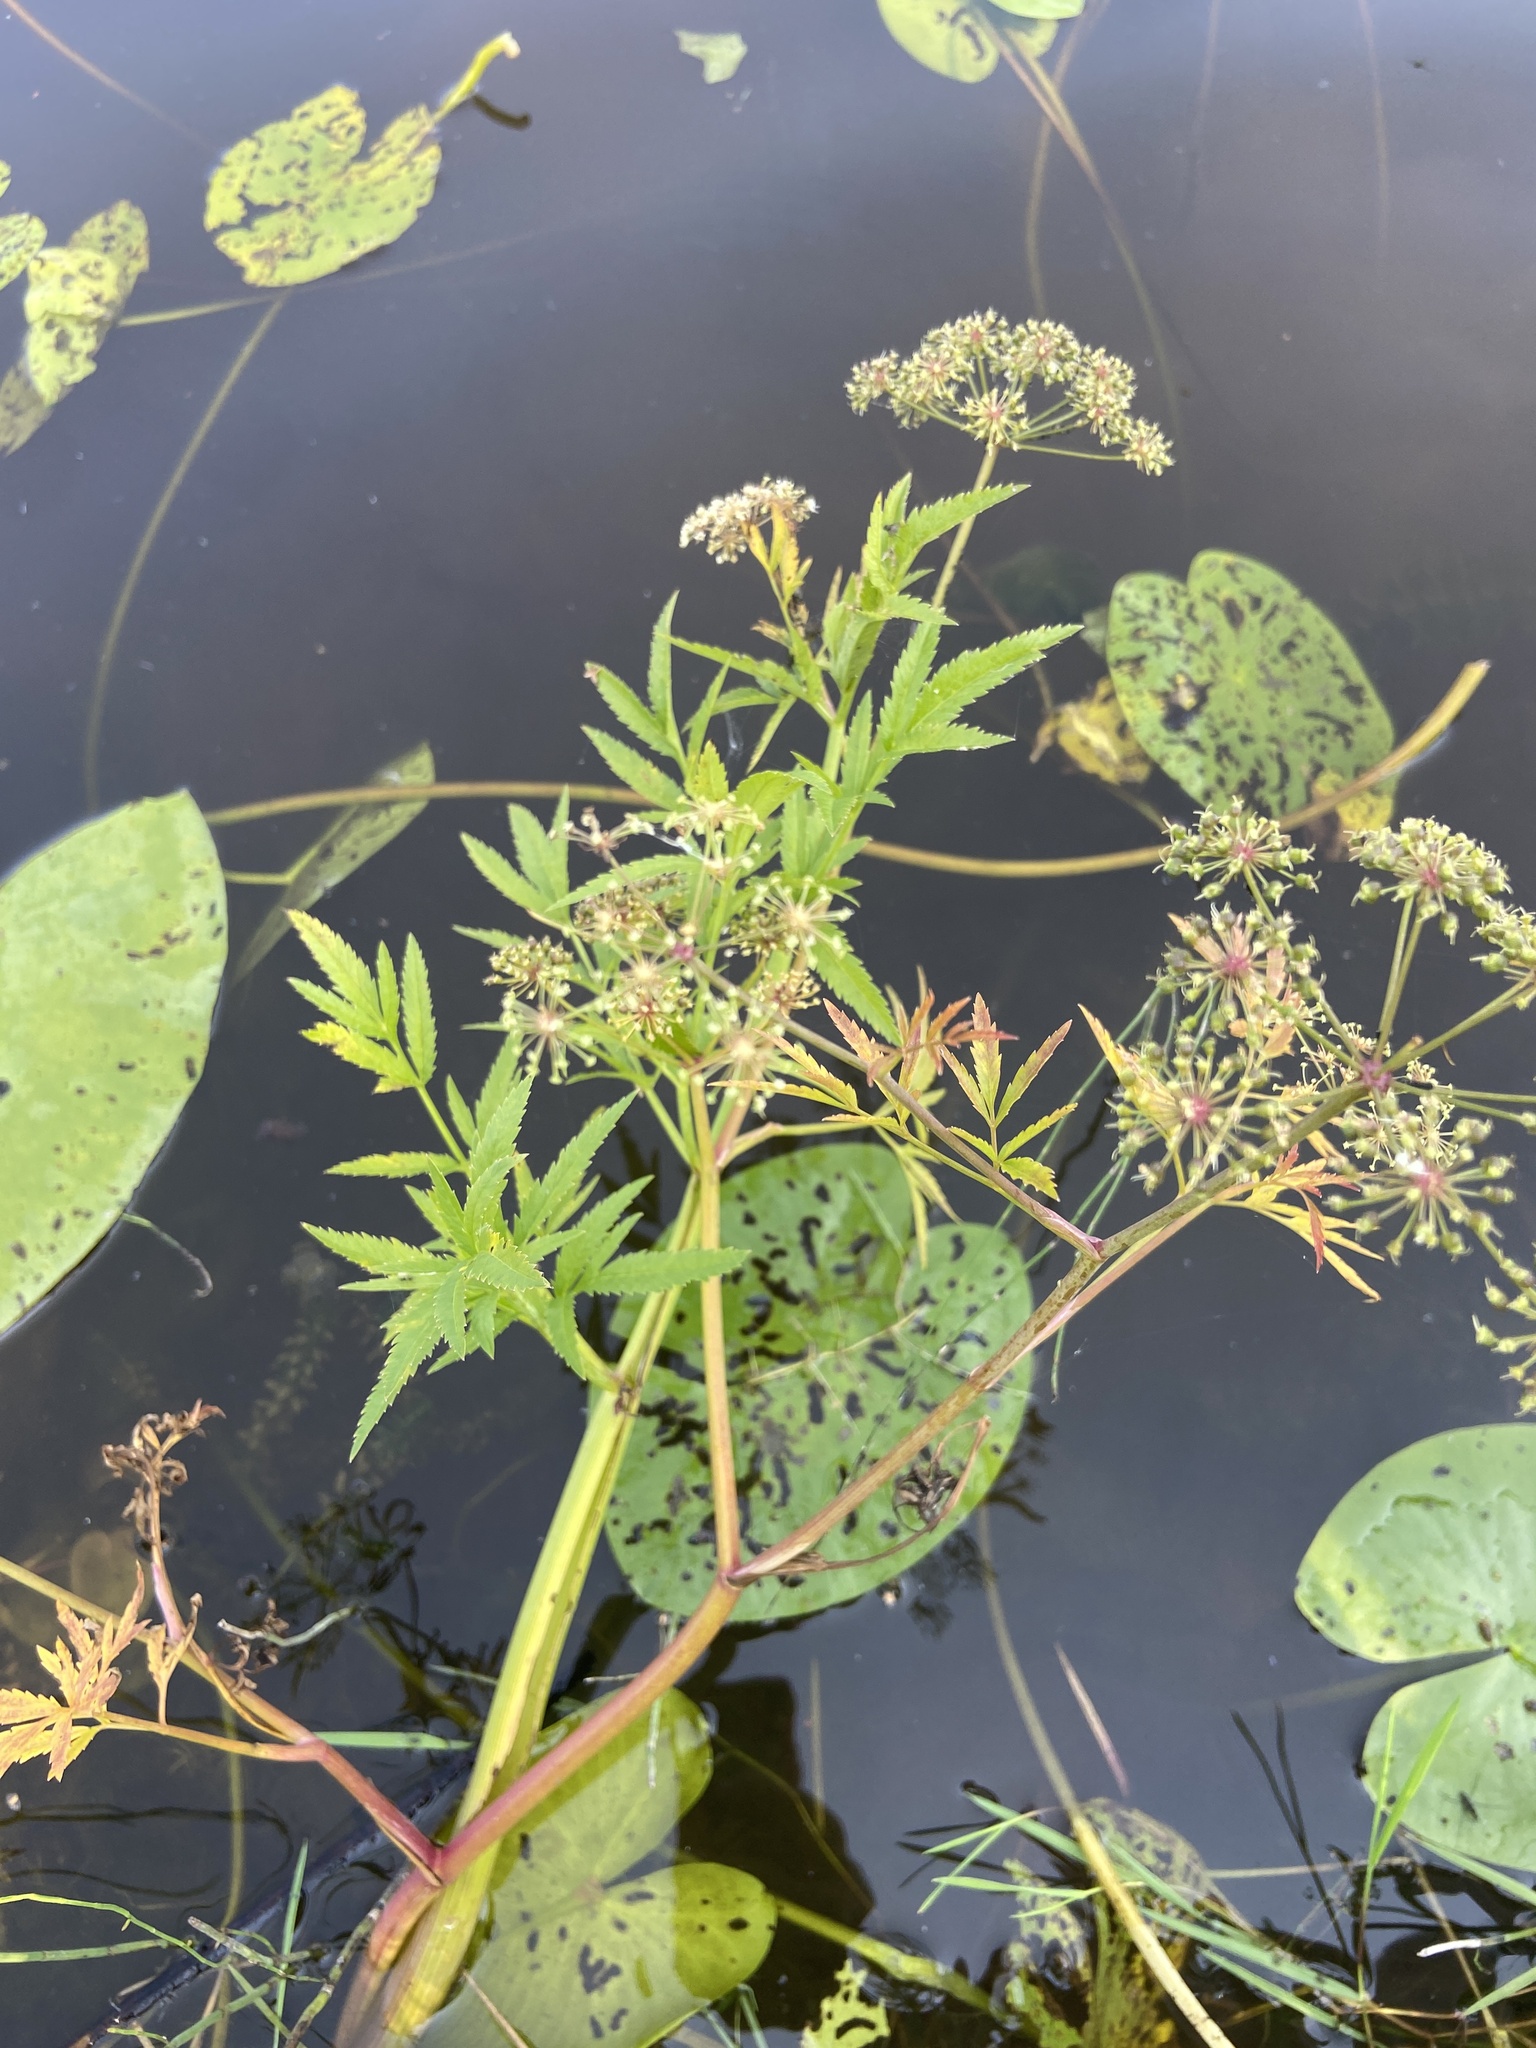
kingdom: Plantae
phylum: Tracheophyta
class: Magnoliopsida
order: Apiales
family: Apiaceae
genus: Cicuta
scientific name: Cicuta virosa
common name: Cowbane
